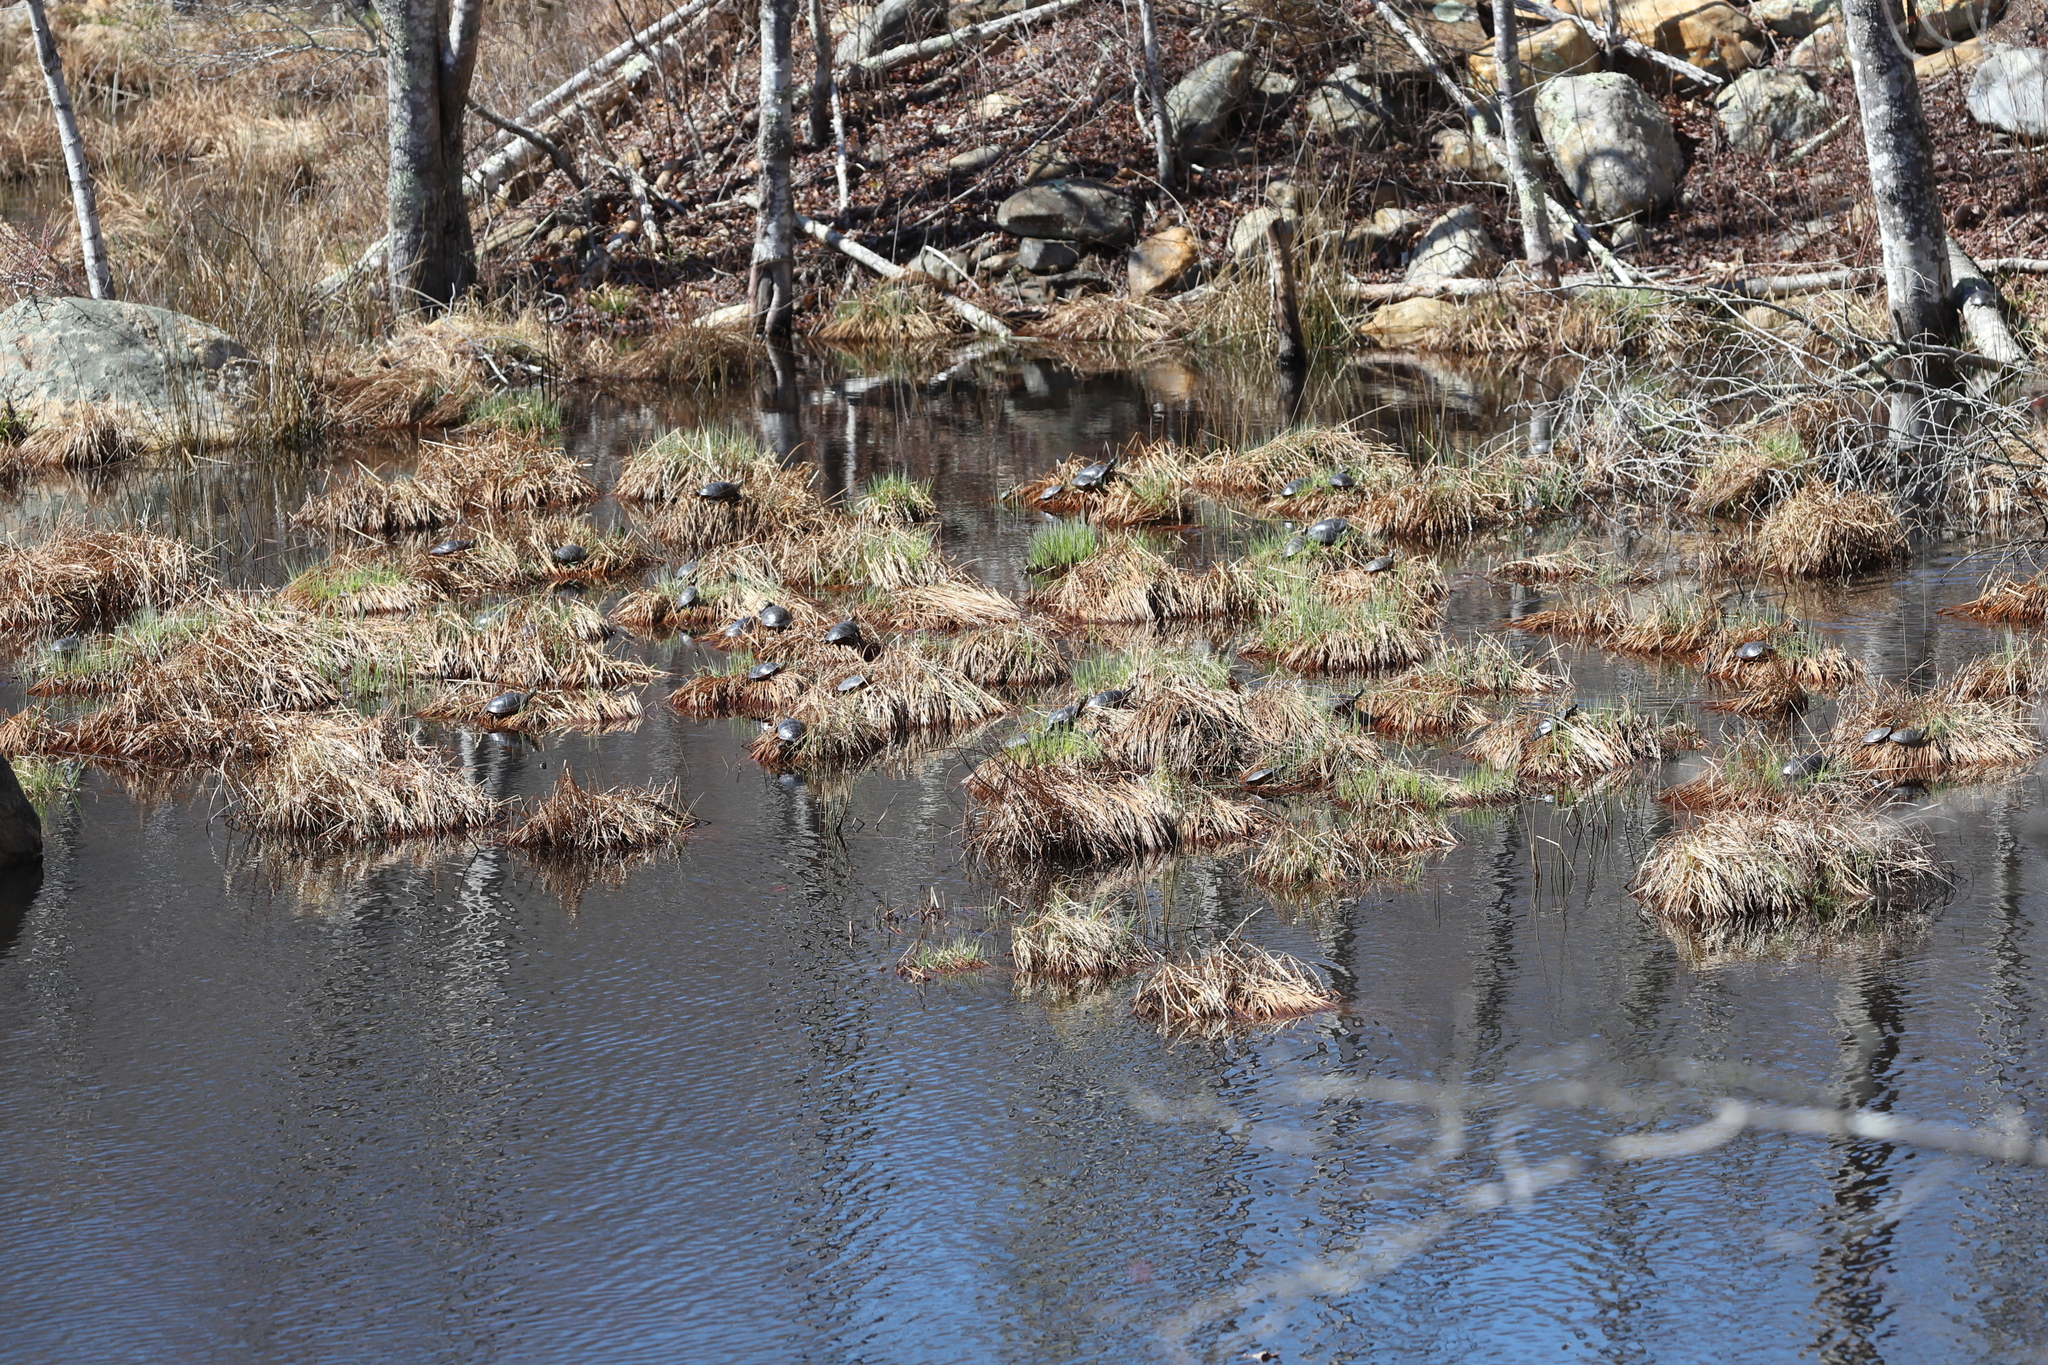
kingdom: Animalia
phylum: Chordata
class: Testudines
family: Emydidae
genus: Chrysemys
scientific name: Chrysemys picta
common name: Painted turtle
